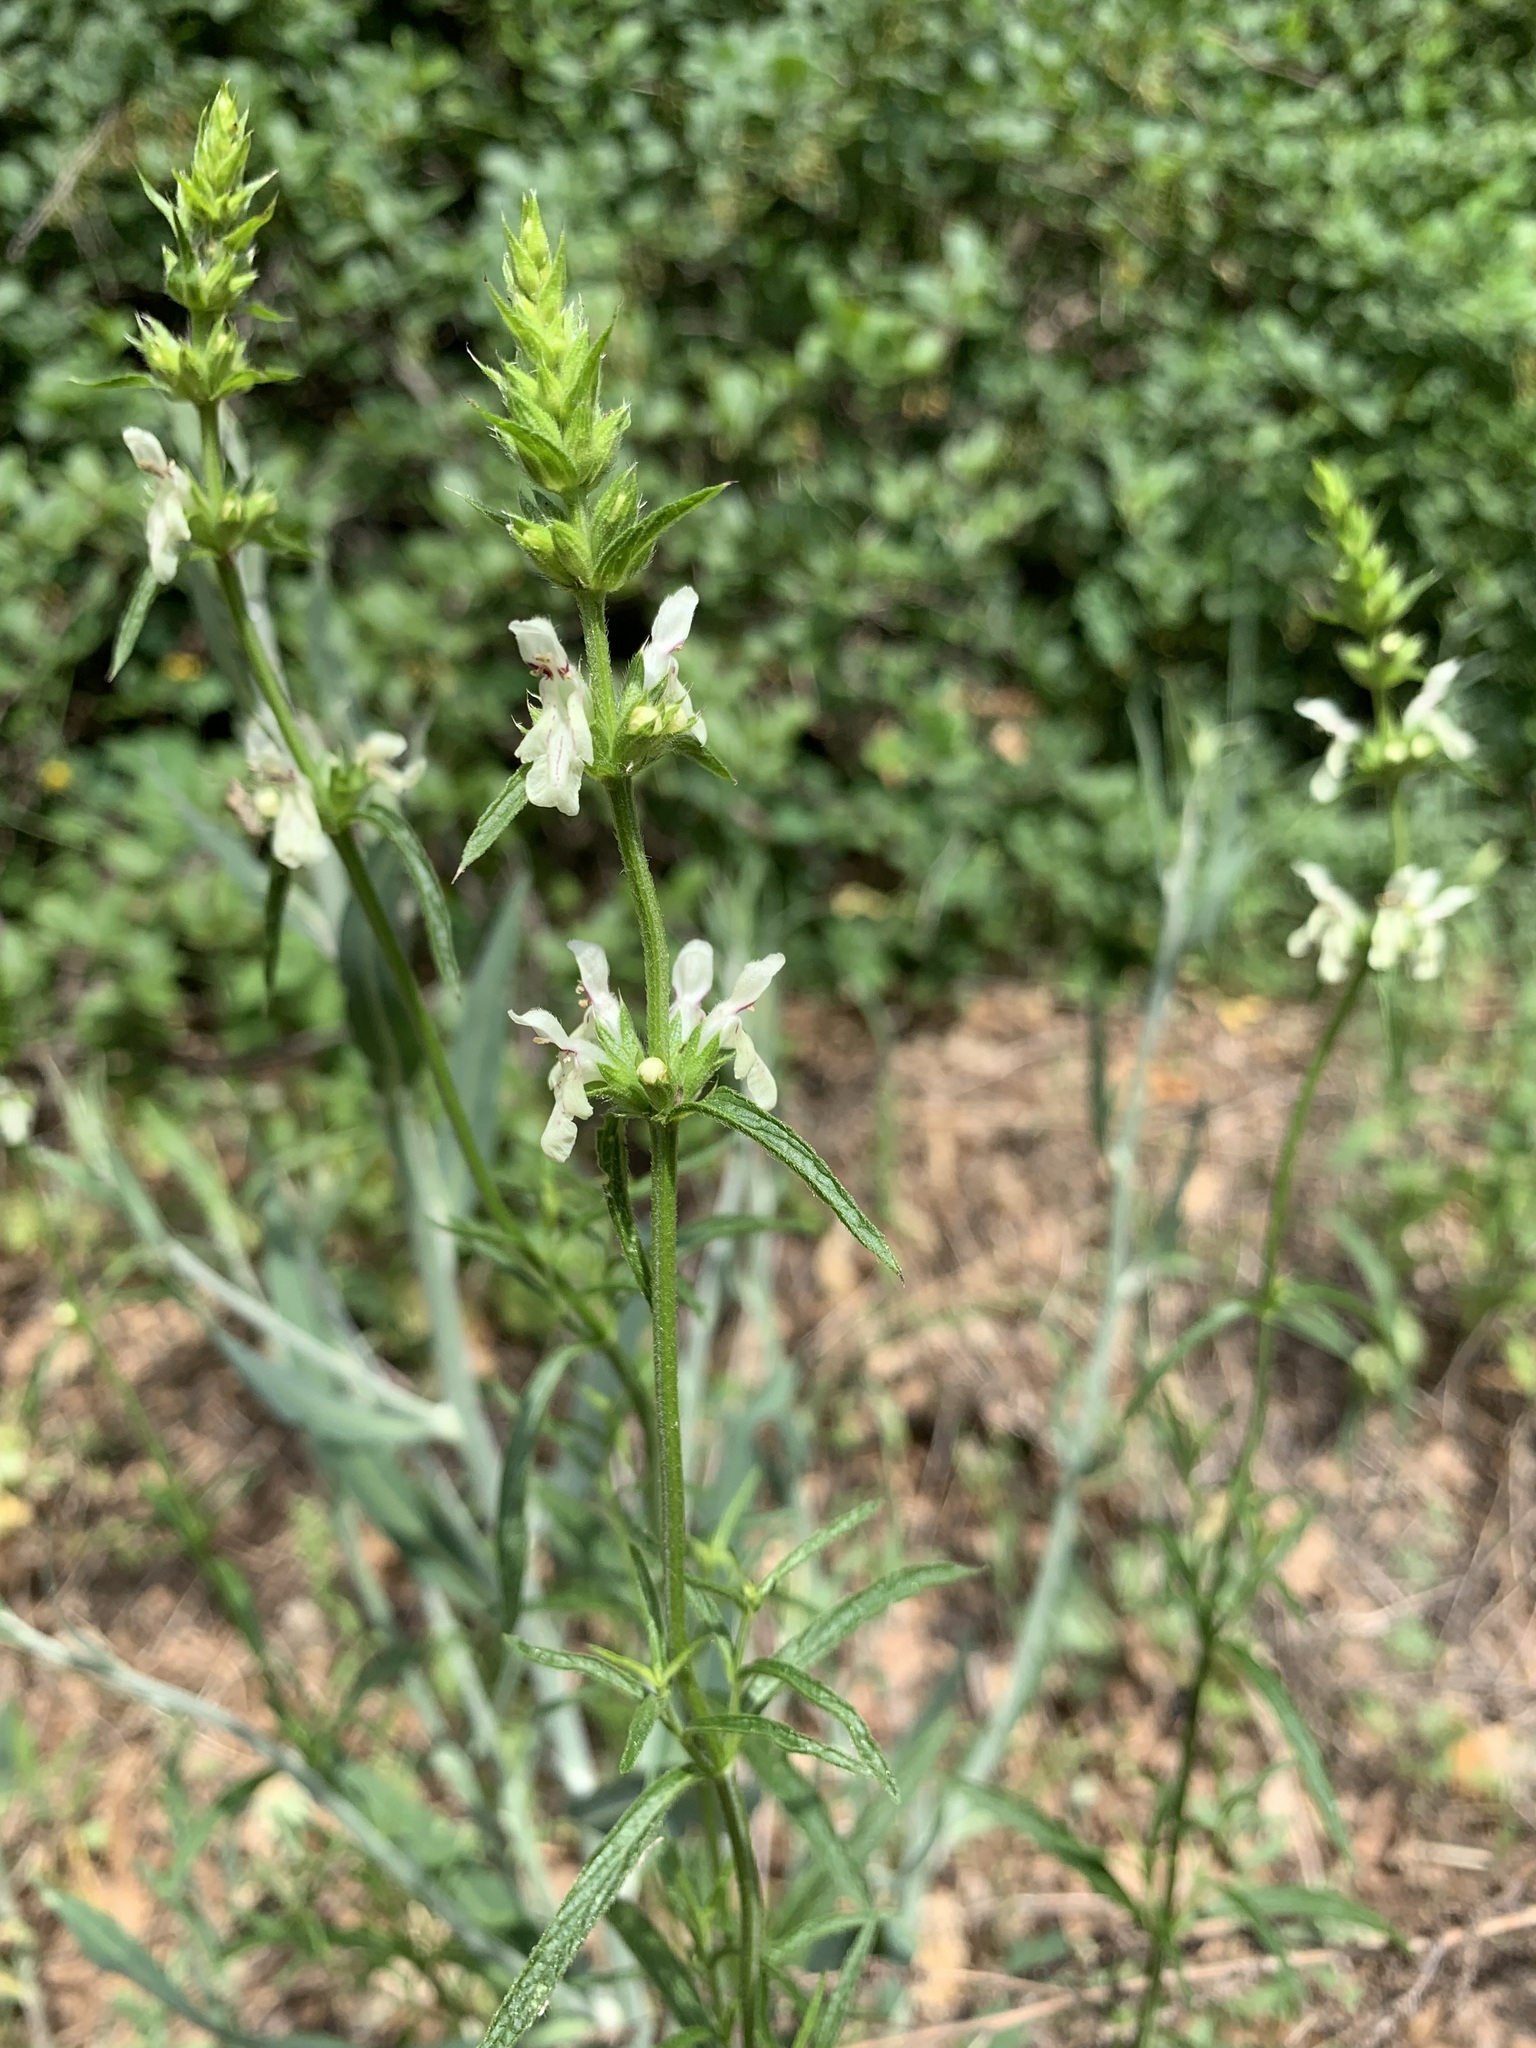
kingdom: Plantae
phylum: Tracheophyta
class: Magnoliopsida
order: Lamiales
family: Lamiaceae
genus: Stachys
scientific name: Stachys recta
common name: Perennial yellow-woundwort
